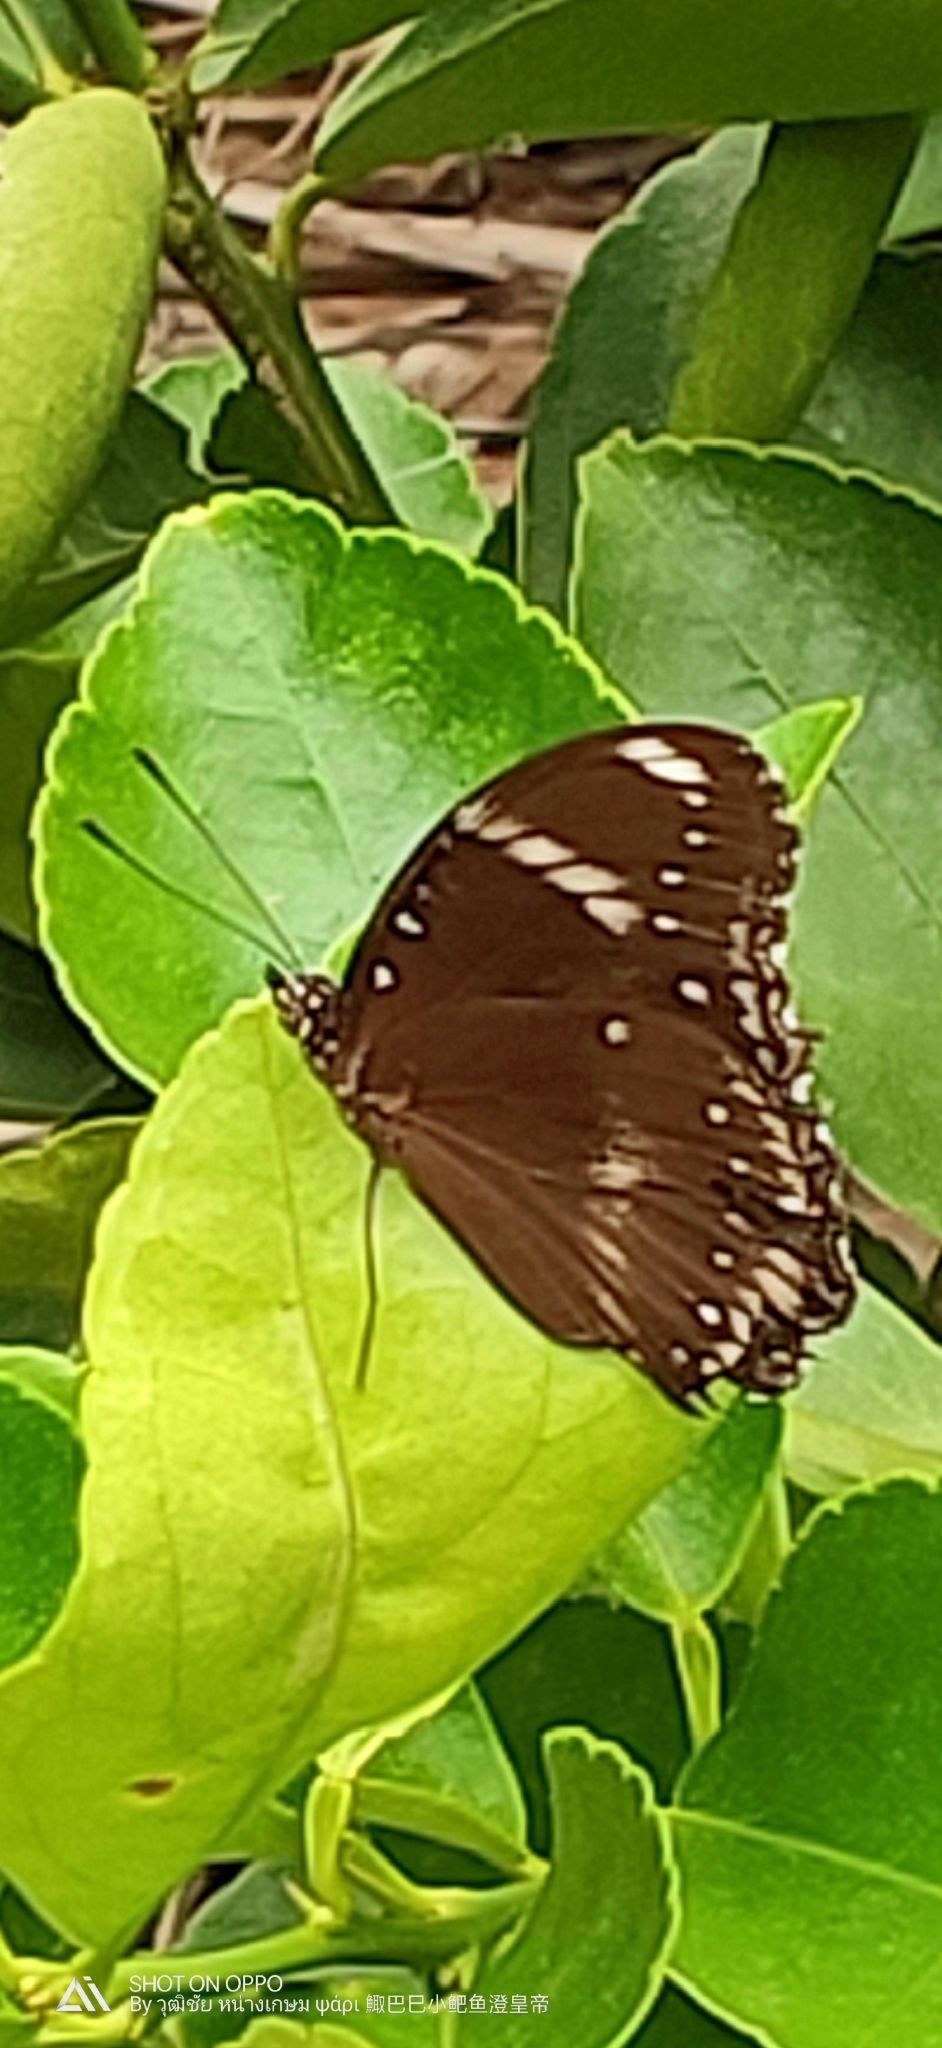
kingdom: Animalia
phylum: Arthropoda
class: Insecta
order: Lepidoptera
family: Nymphalidae
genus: Hypolimnas
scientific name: Hypolimnas bolina
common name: Great eggfly
